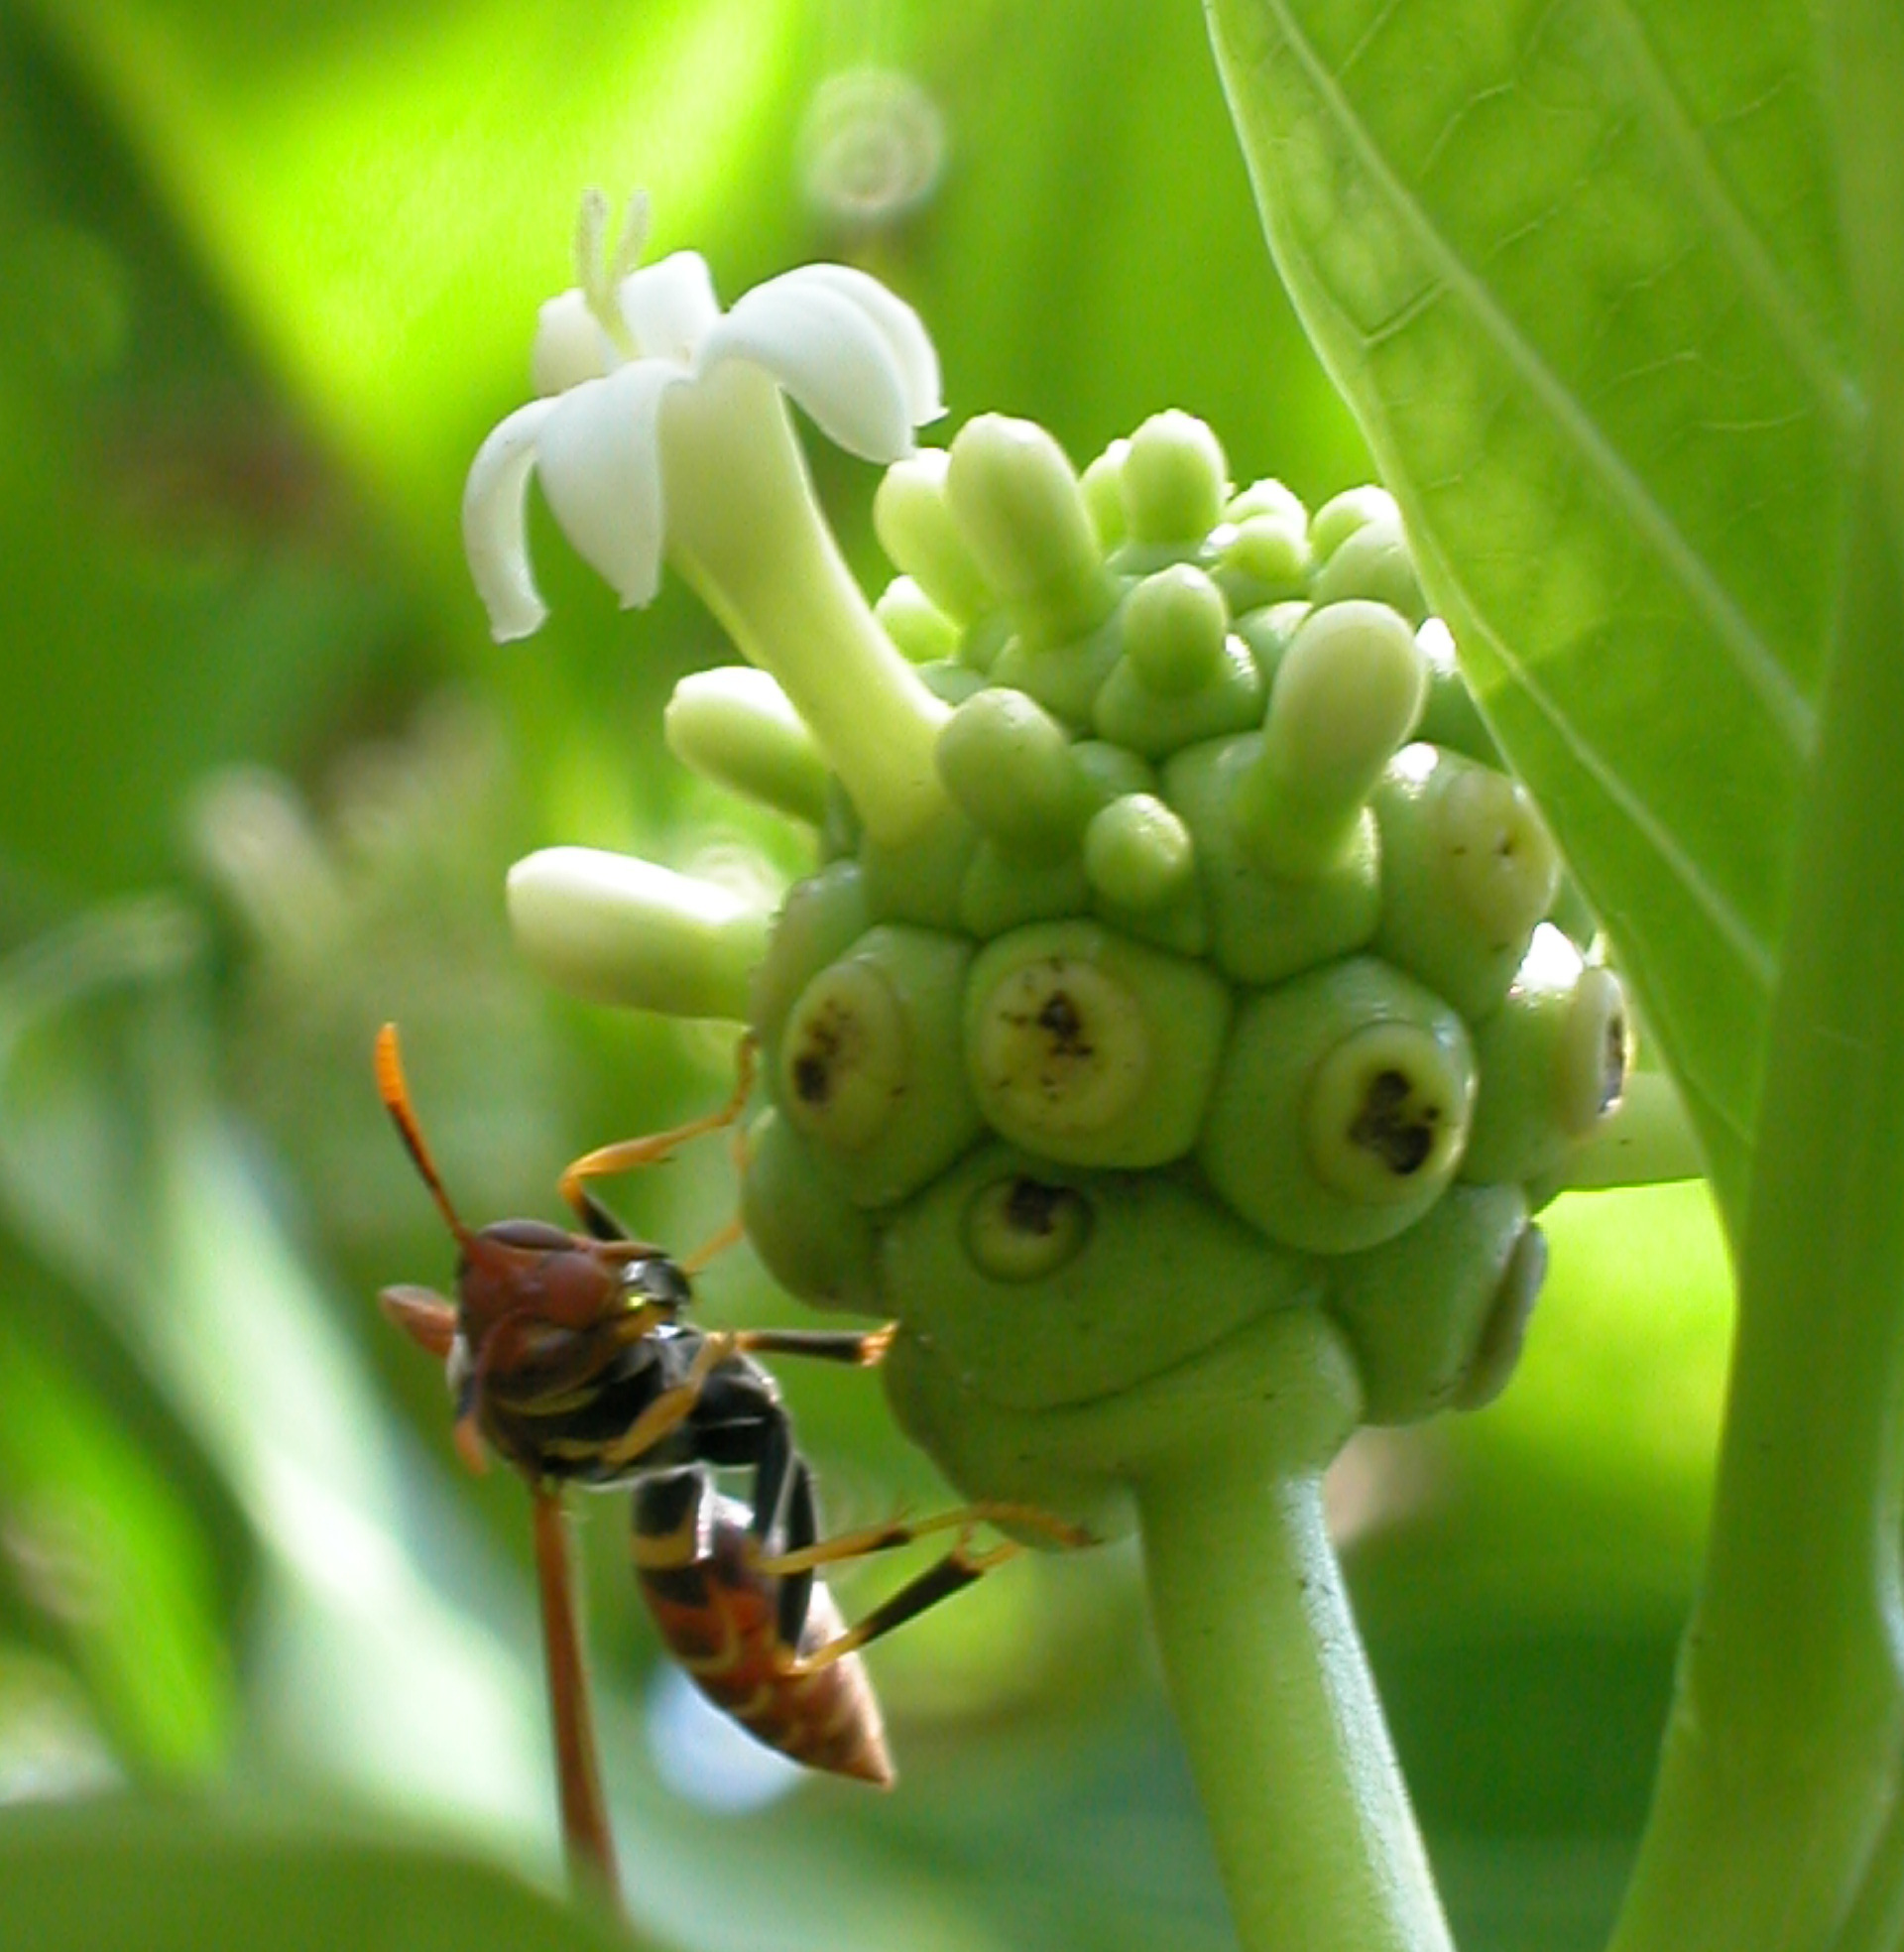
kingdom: Plantae
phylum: Tracheophyta
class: Magnoliopsida
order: Gentianales
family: Rubiaceae
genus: Morinda
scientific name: Morinda citrifolia
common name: Indian-mulberry
